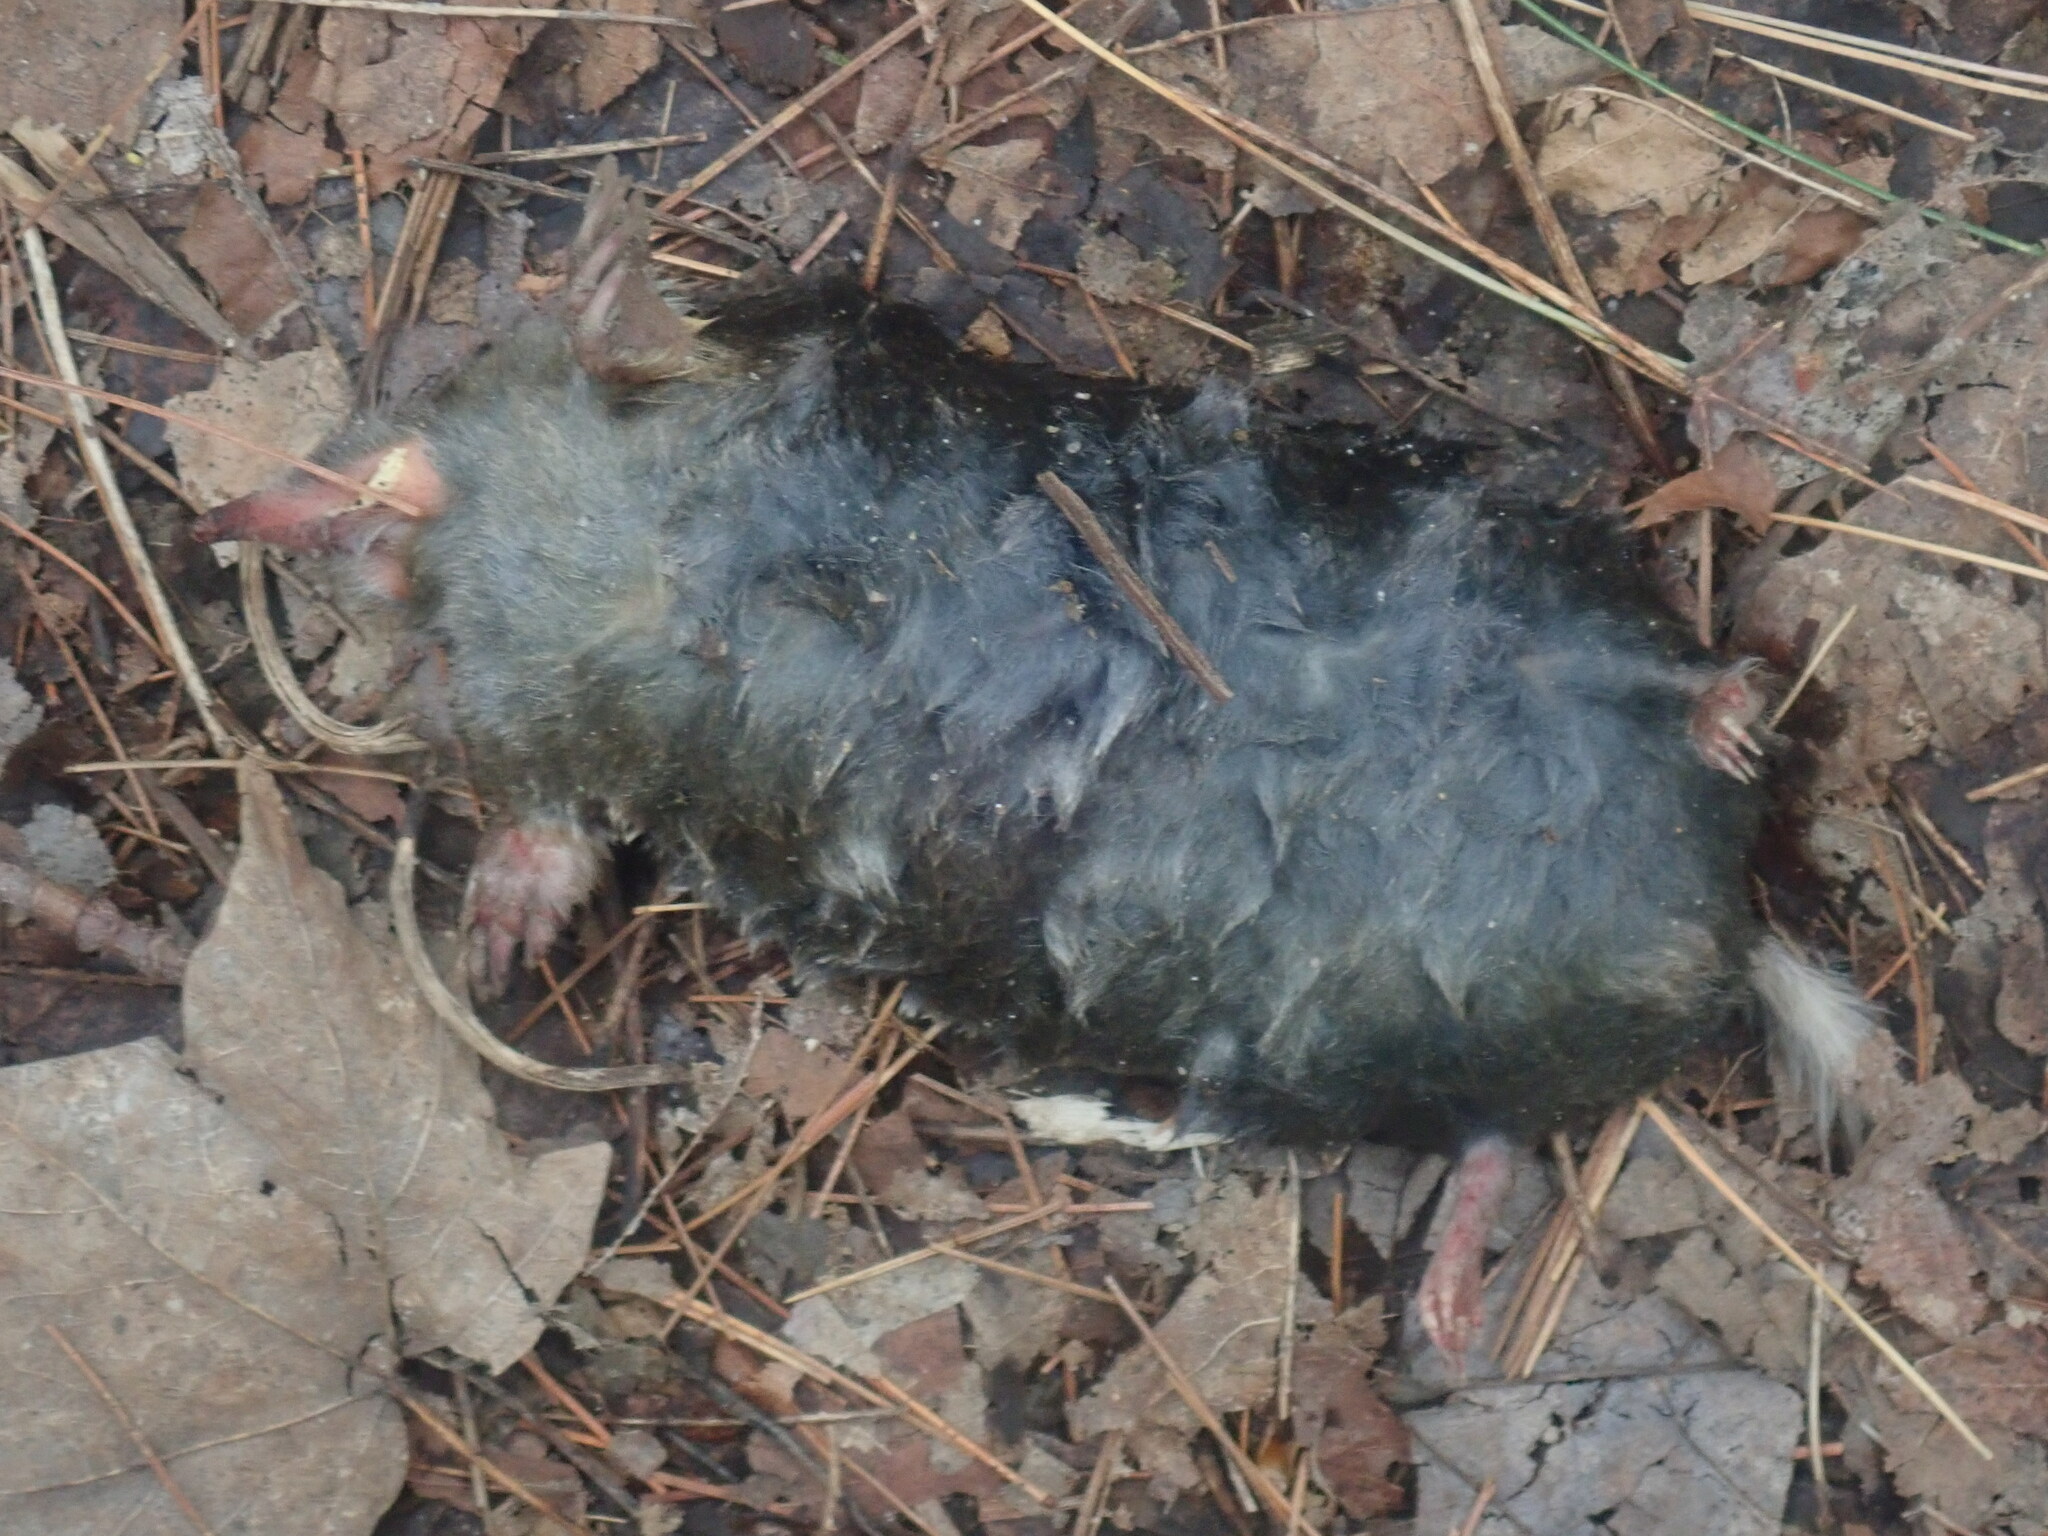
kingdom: Animalia
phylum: Chordata
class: Mammalia
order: Soricomorpha
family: Talpidae
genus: Parascalops
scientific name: Parascalops breweri
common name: Hairy-tailed mole
